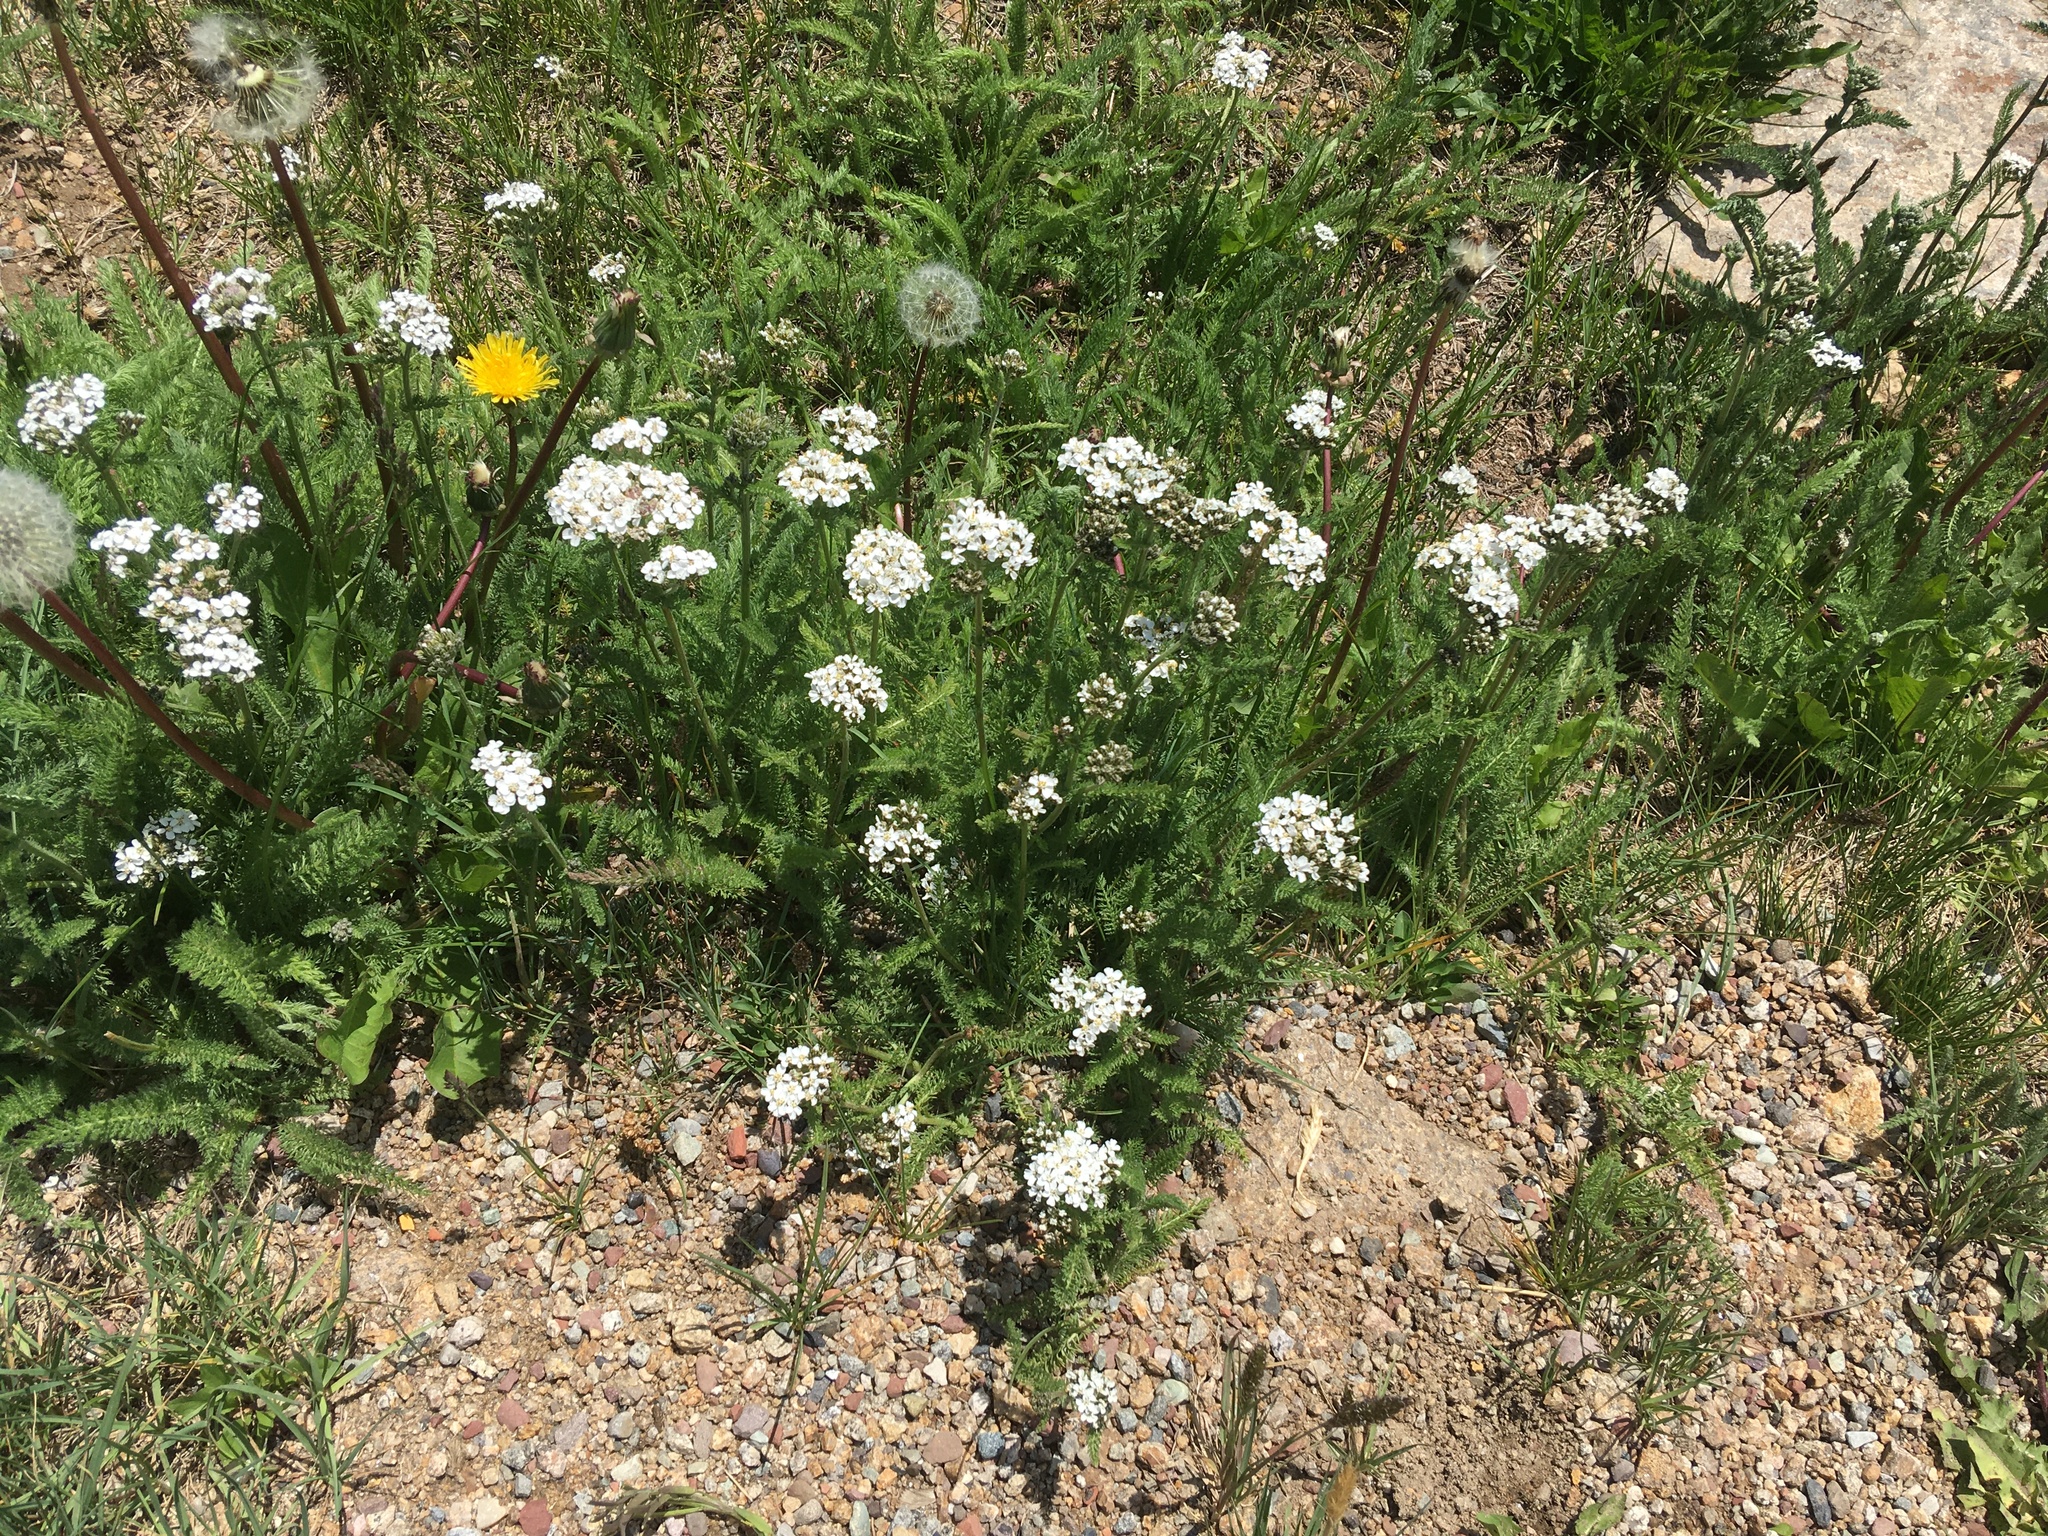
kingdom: Plantae
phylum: Tracheophyta
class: Magnoliopsida
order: Asterales
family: Asteraceae
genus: Achillea
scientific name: Achillea millefolium
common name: Yarrow
